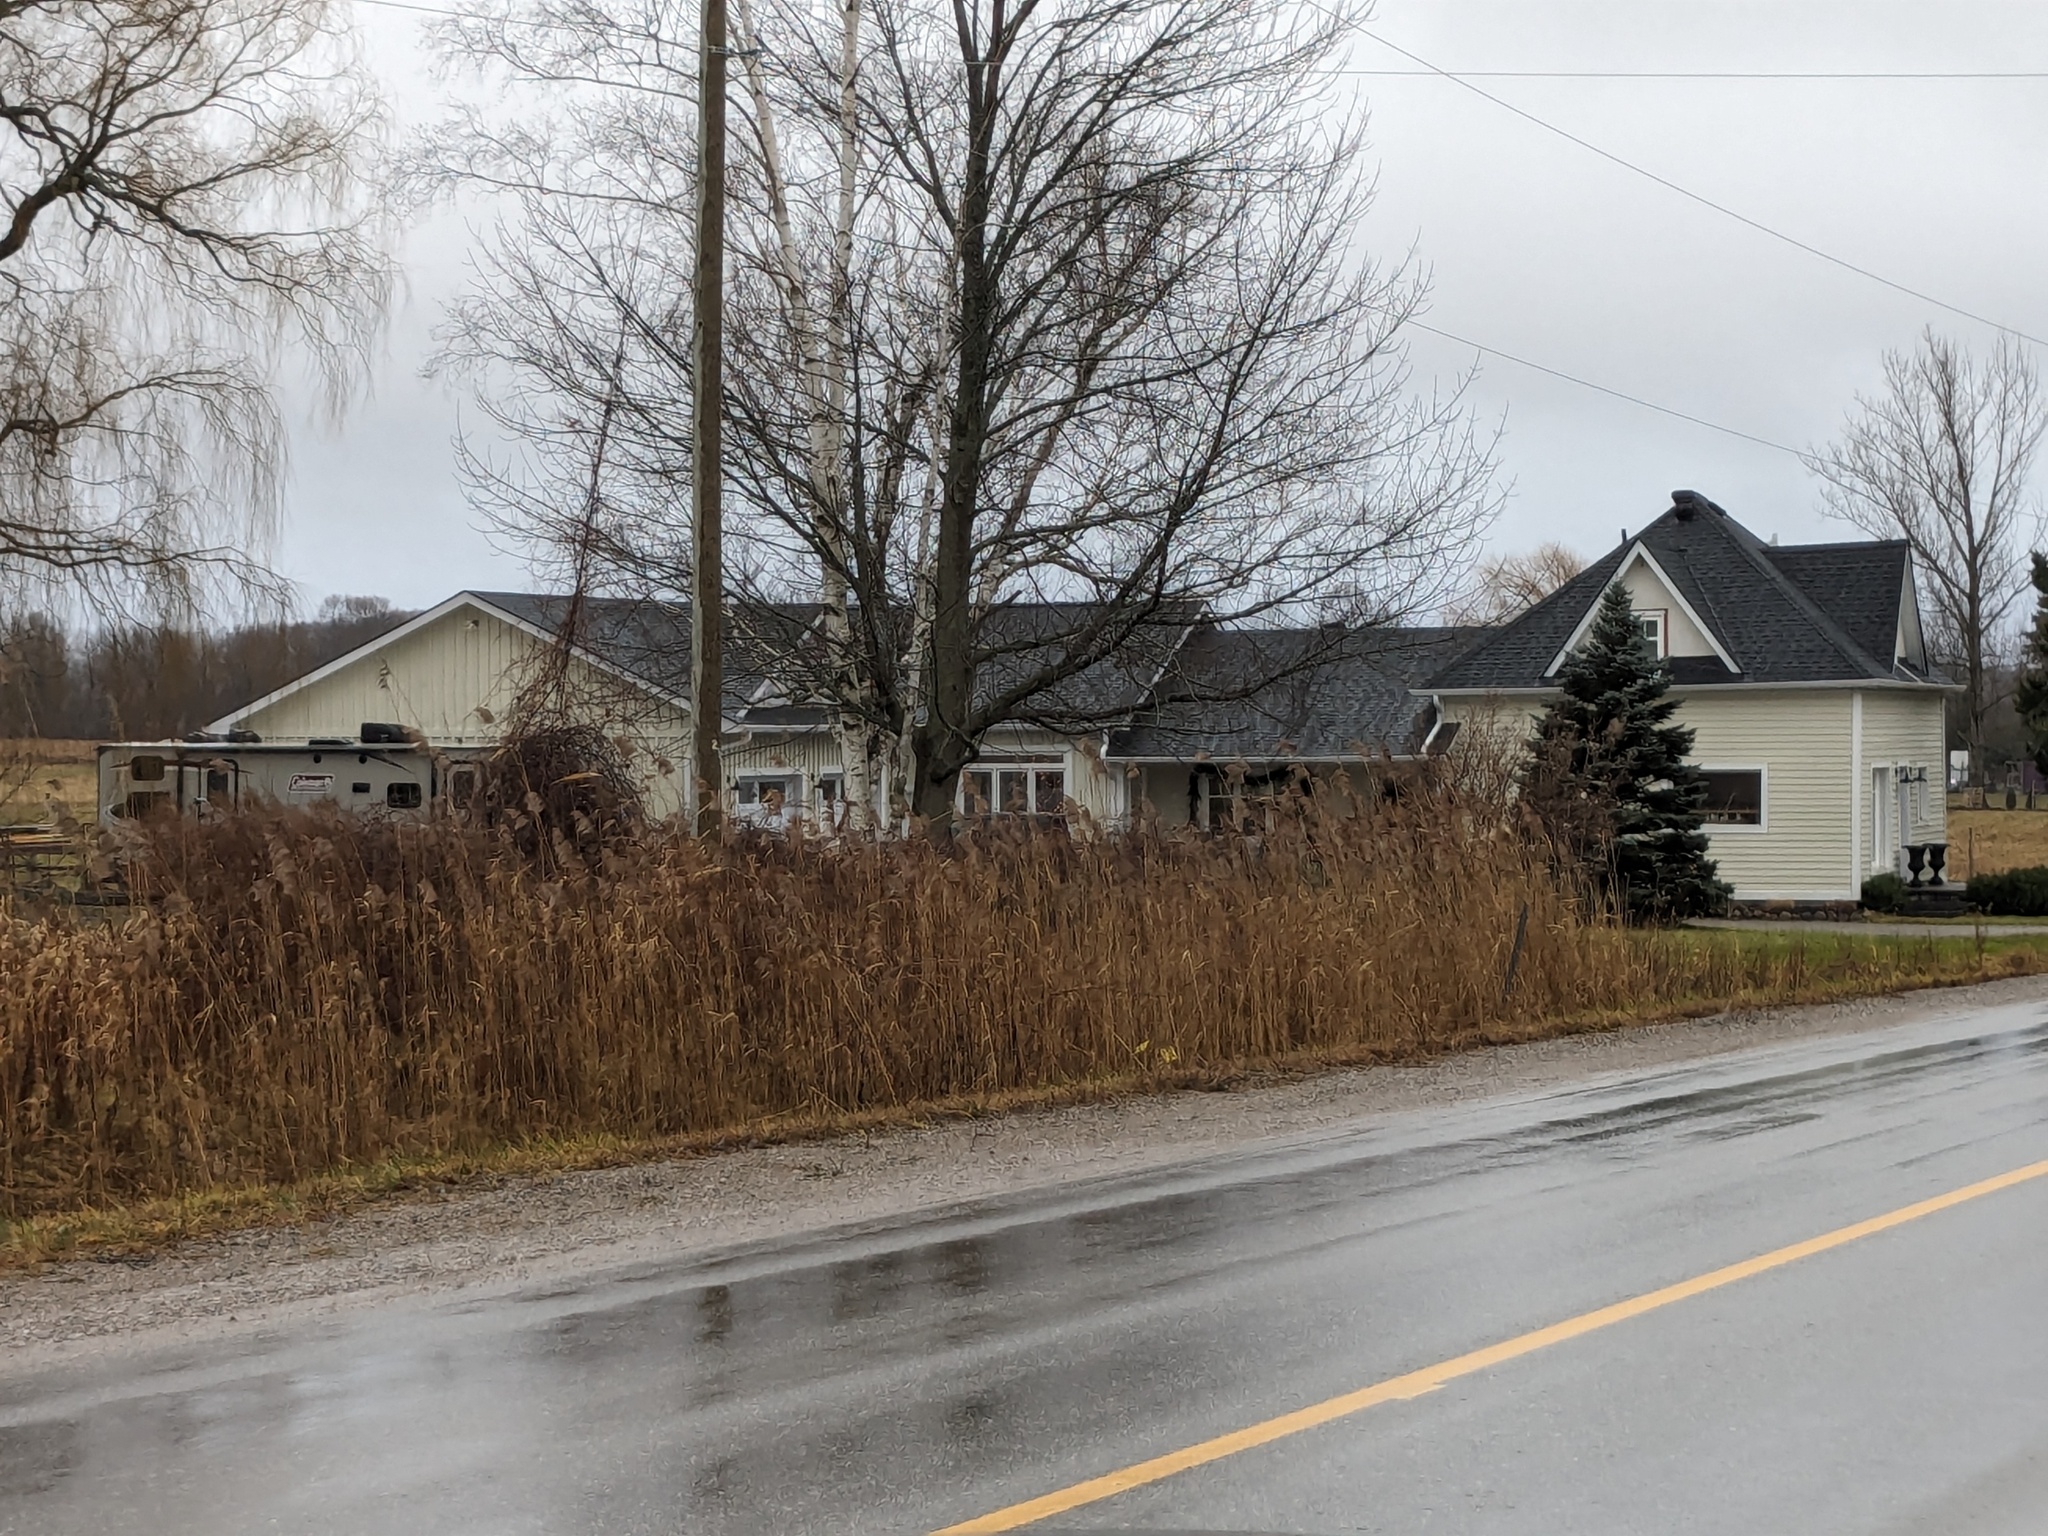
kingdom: Plantae
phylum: Tracheophyta
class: Liliopsida
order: Poales
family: Poaceae
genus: Phragmites
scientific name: Phragmites australis
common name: Common reed
